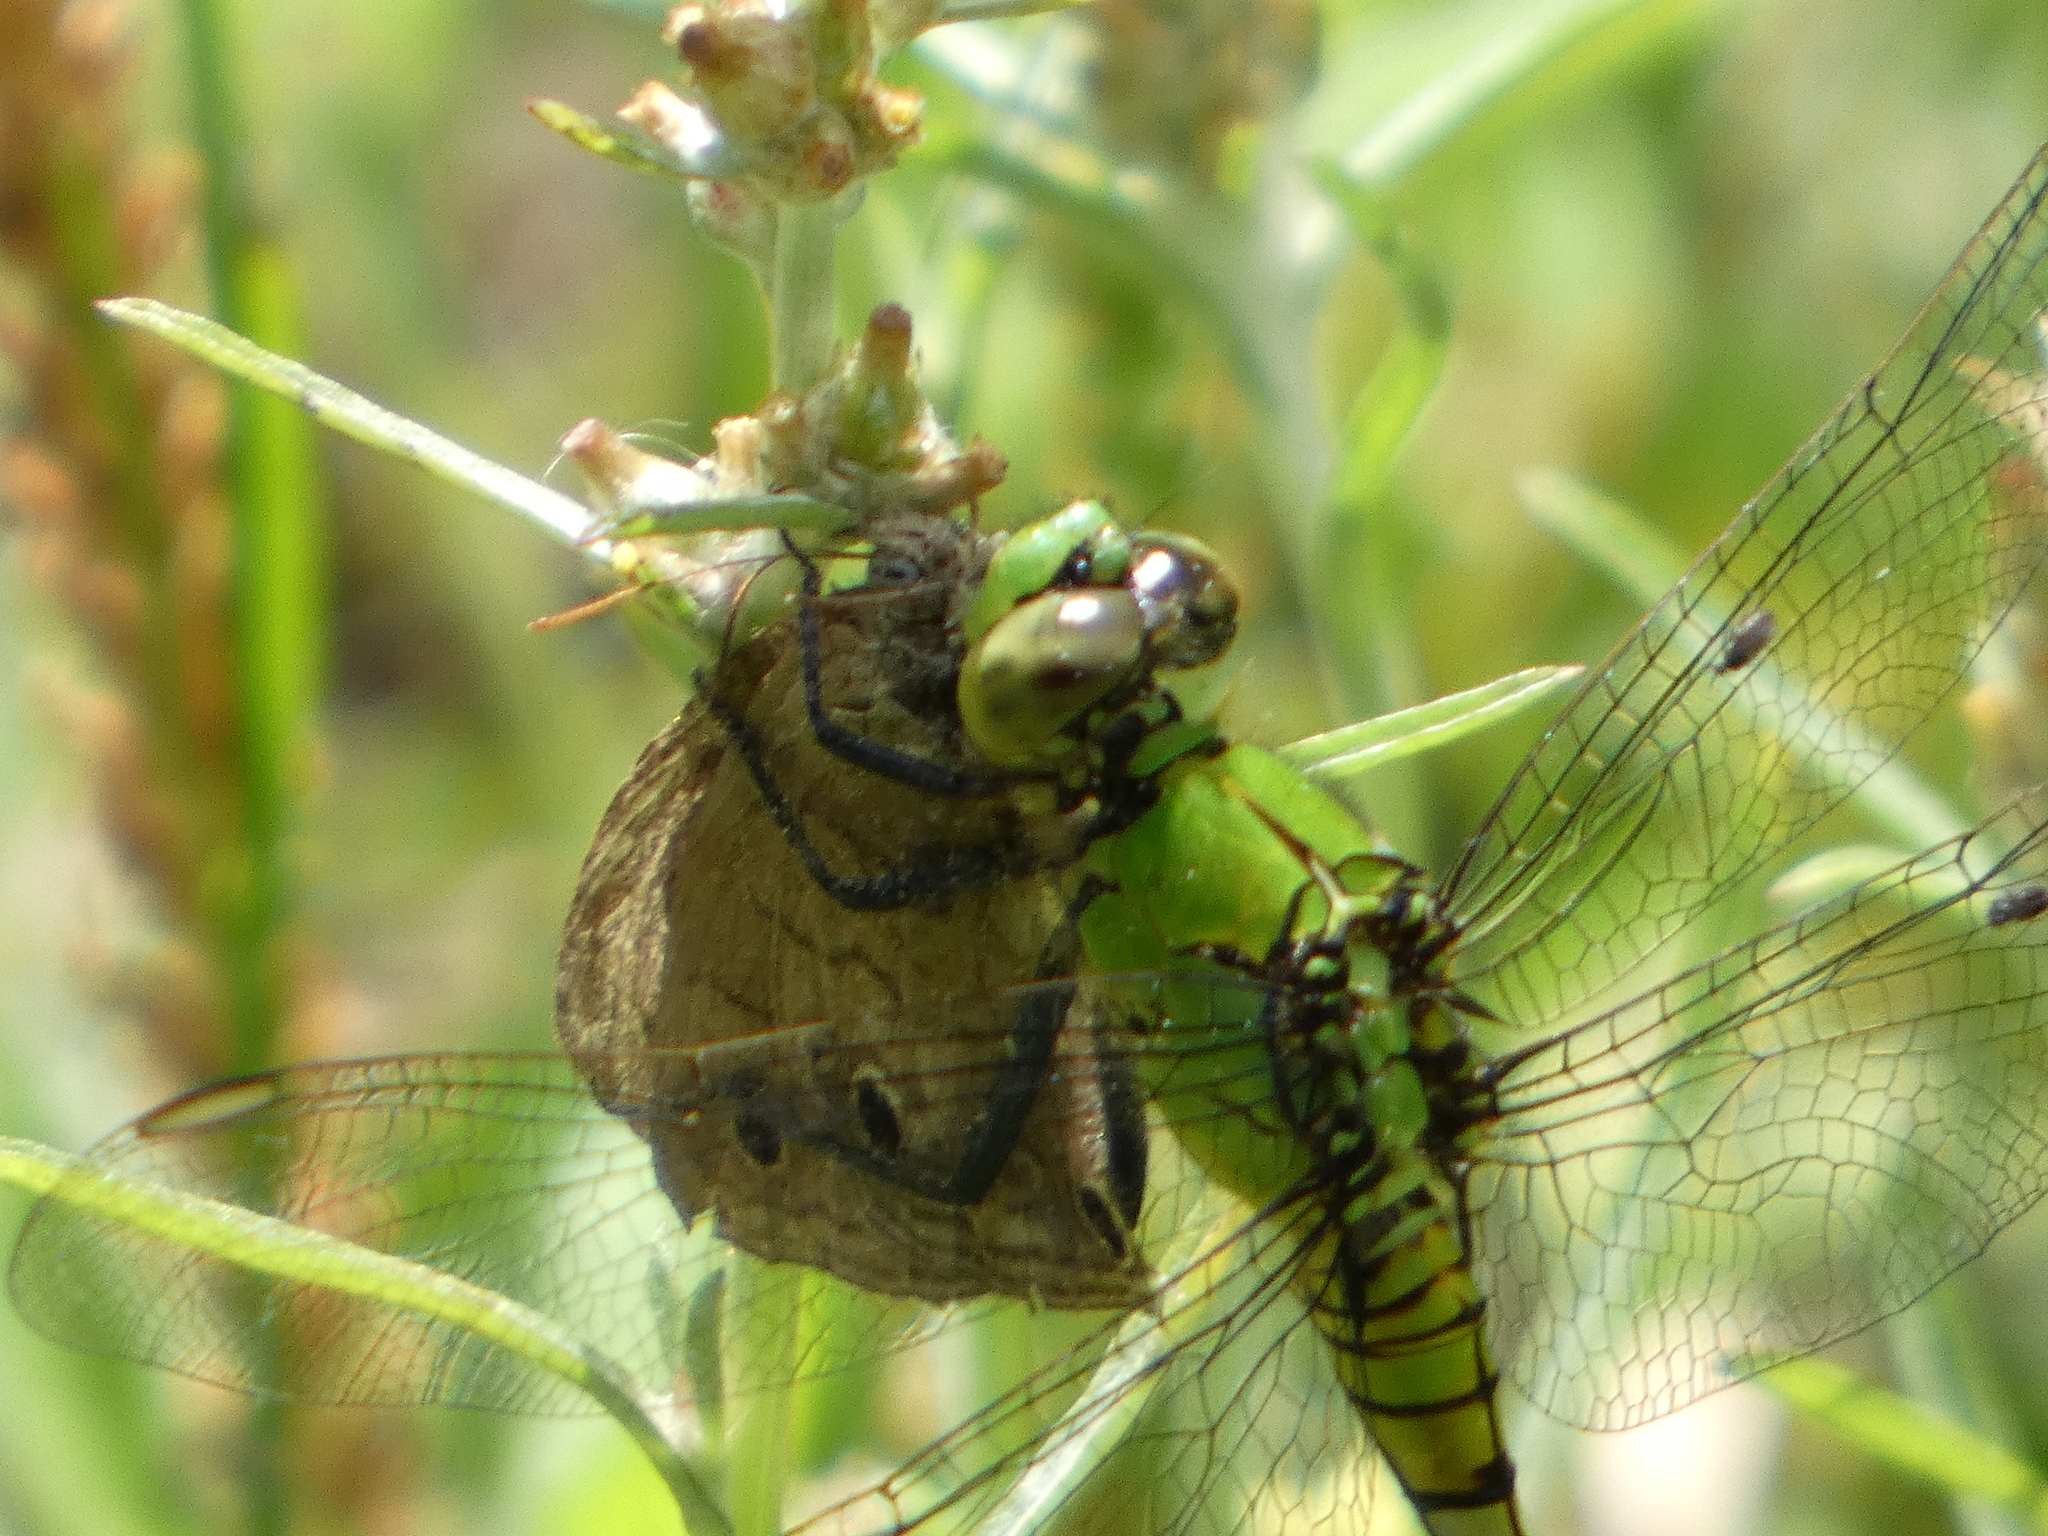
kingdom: Animalia
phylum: Arthropoda
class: Insecta
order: Odonata
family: Libellulidae
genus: Erythemis
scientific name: Erythemis simplicicollis
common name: Eastern pondhawk
